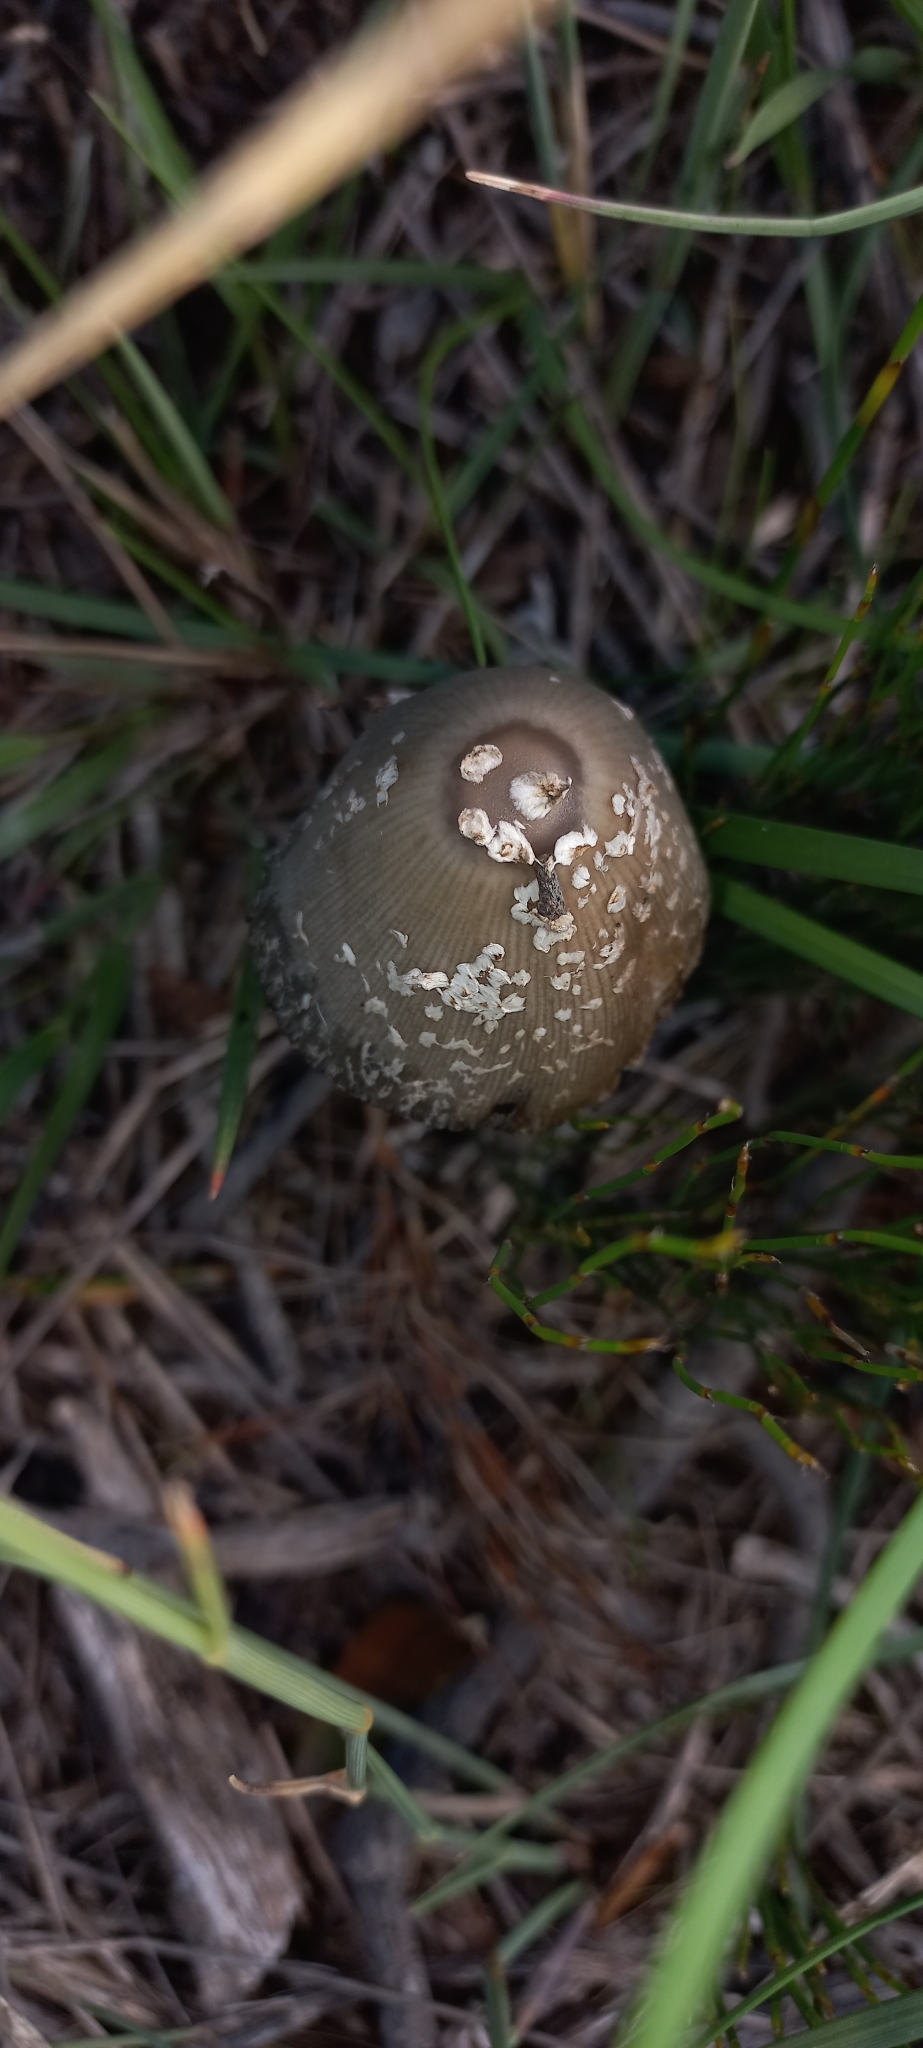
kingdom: Fungi
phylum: Basidiomycota
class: Agaricomycetes
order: Agaricales
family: Psathyrellaceae
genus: Coprinopsis
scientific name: Coprinopsis picacea
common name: Magpie inkcap
